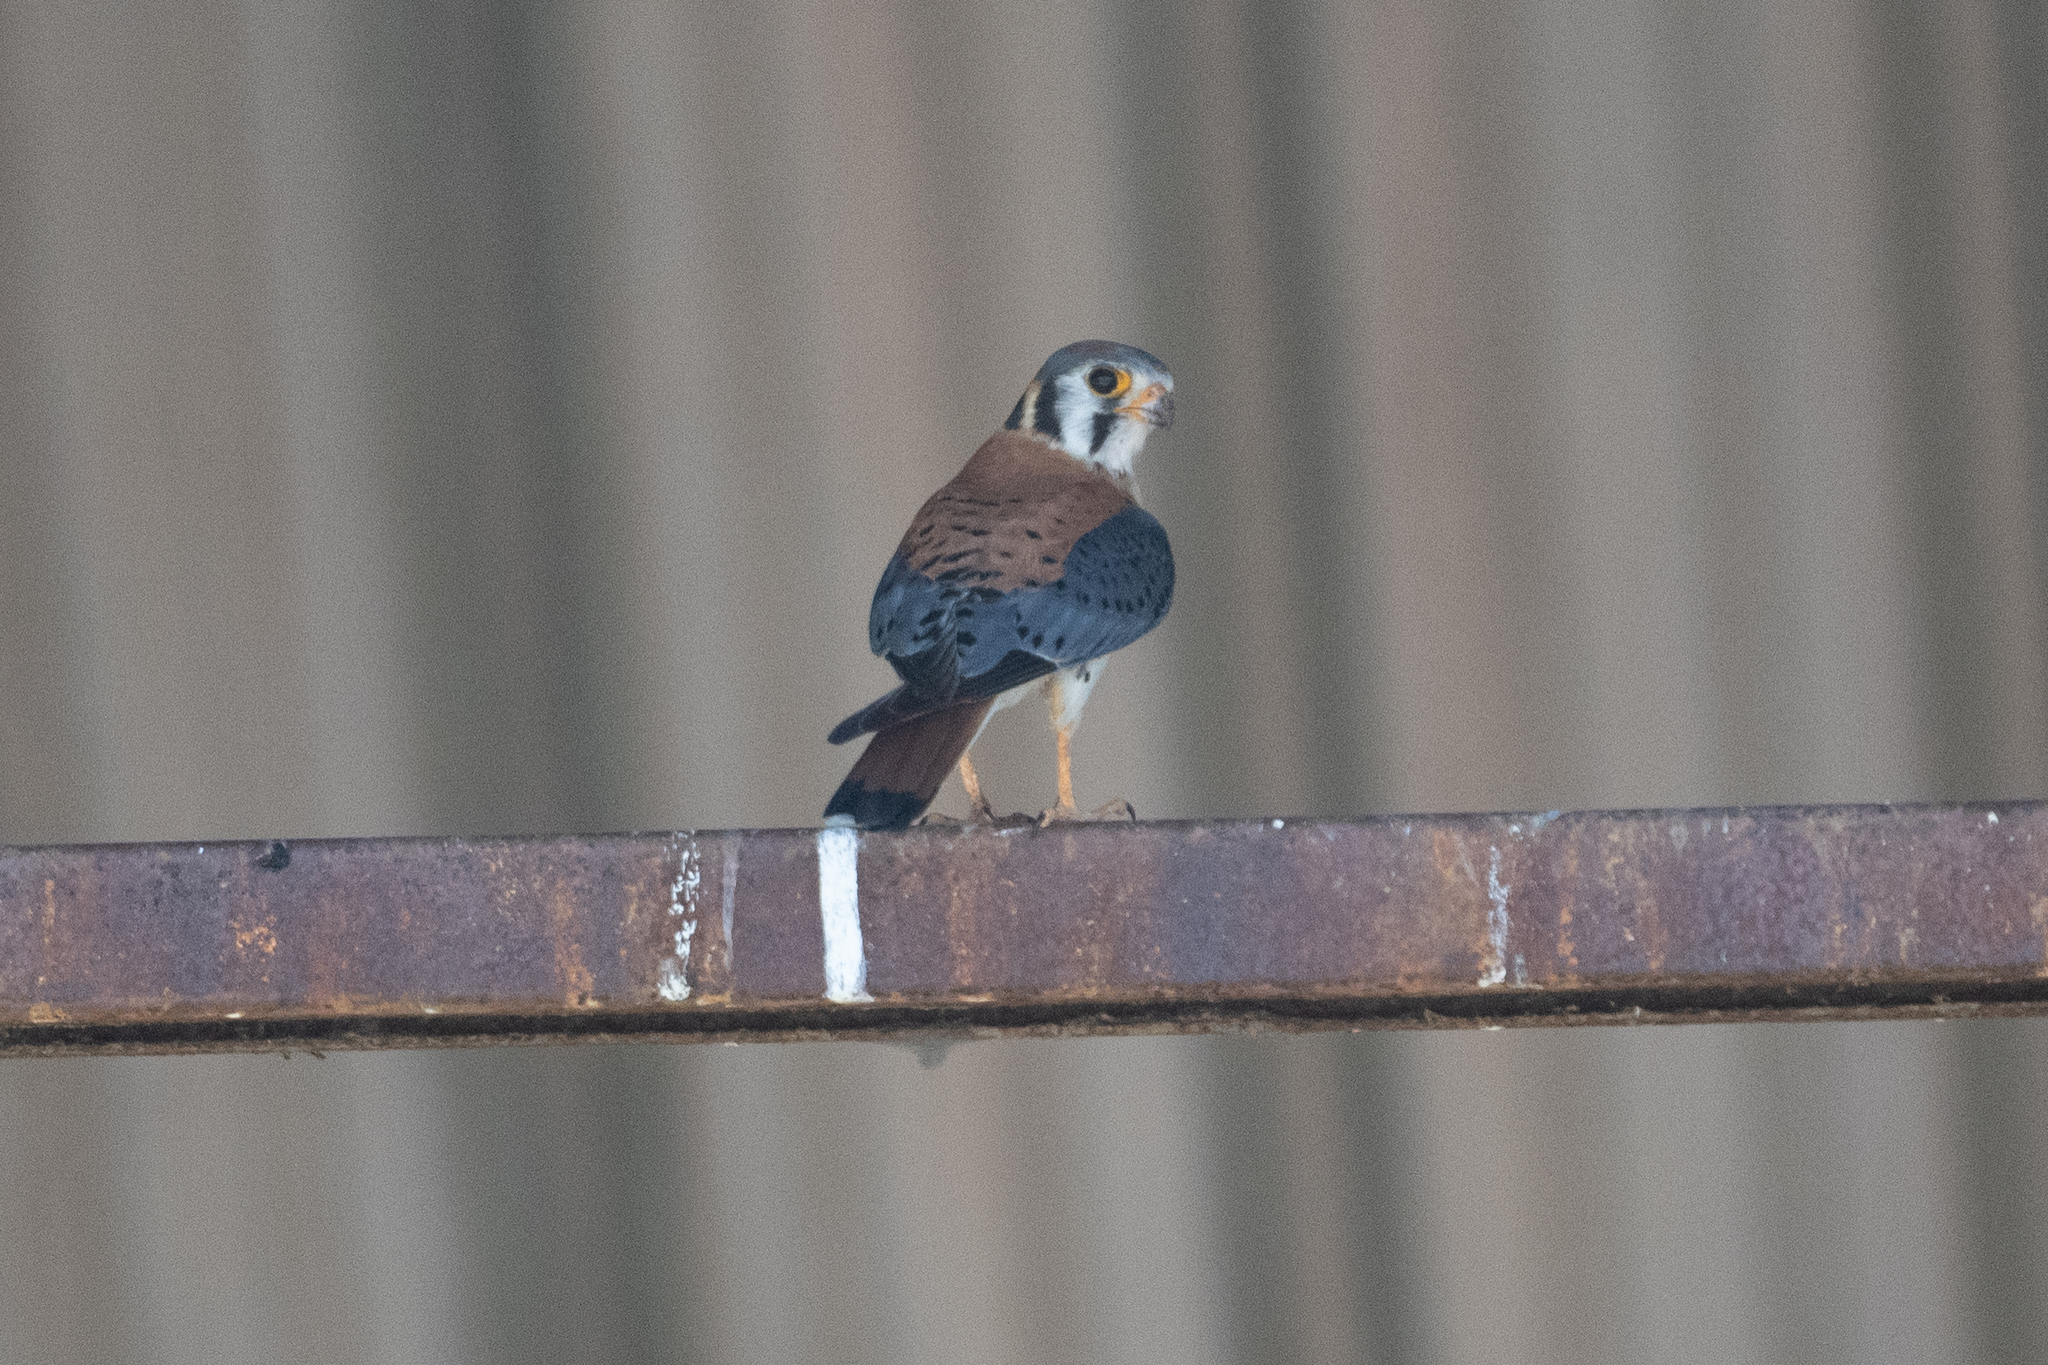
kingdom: Animalia
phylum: Chordata
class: Aves
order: Falconiformes
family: Falconidae
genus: Falco
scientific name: Falco sparverius
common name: American kestrel
